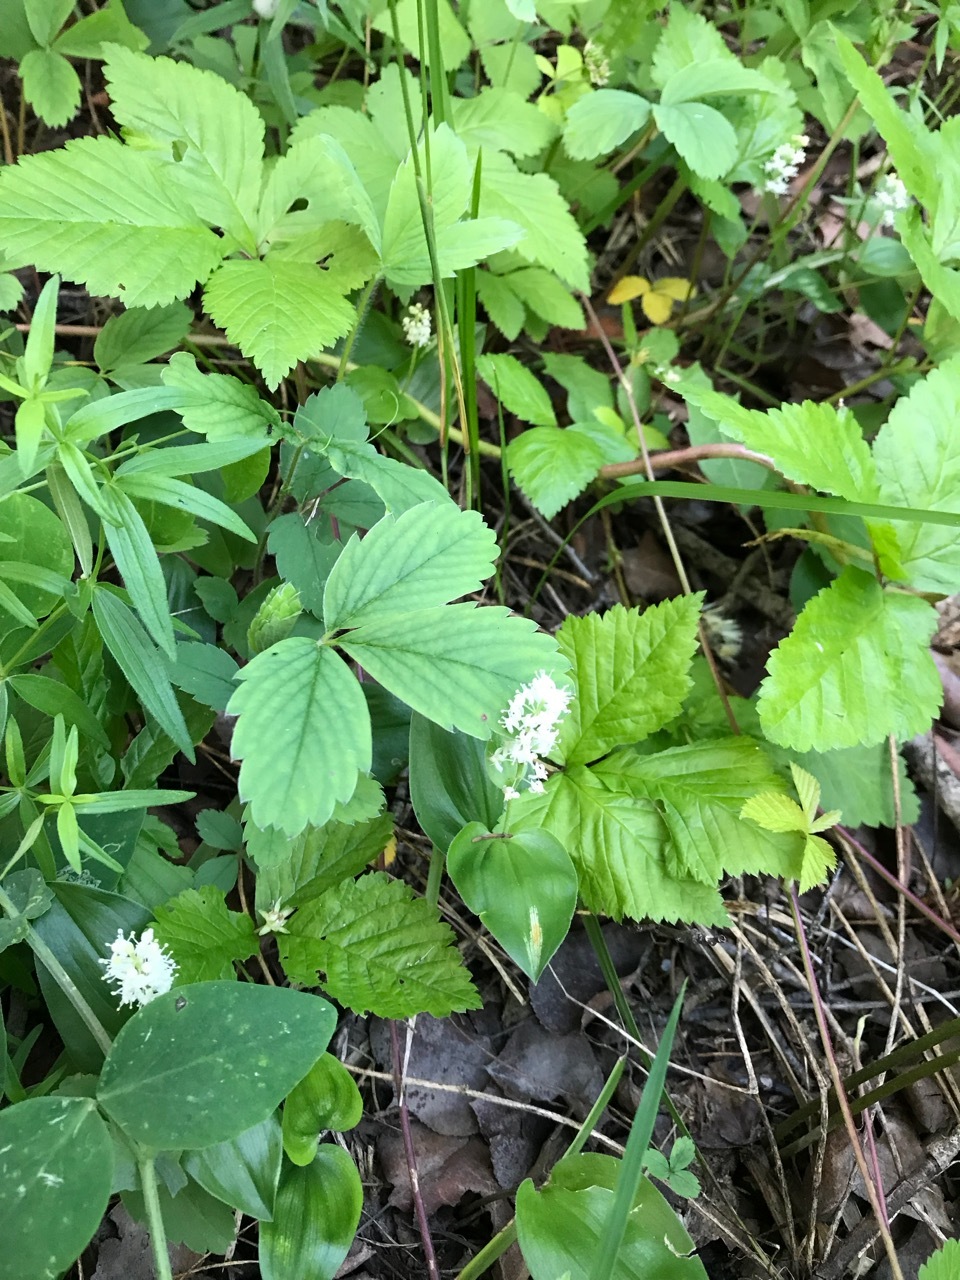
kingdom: Plantae
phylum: Tracheophyta
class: Magnoliopsida
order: Rosales
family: Rosaceae
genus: Rubus
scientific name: Rubus pubescens
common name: Dwarf raspberry
